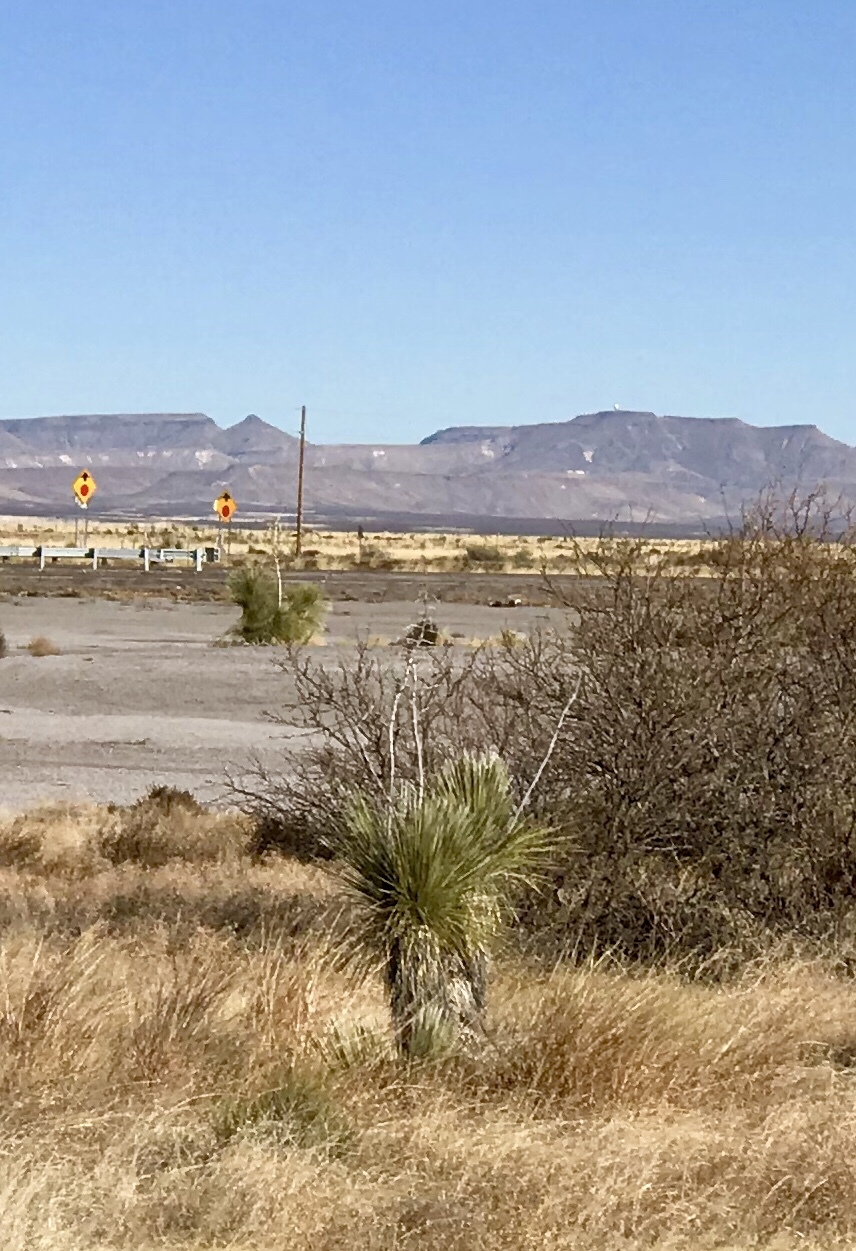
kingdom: Plantae
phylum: Tracheophyta
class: Liliopsida
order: Asparagales
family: Asparagaceae
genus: Yucca
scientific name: Yucca elata
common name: Palmella
